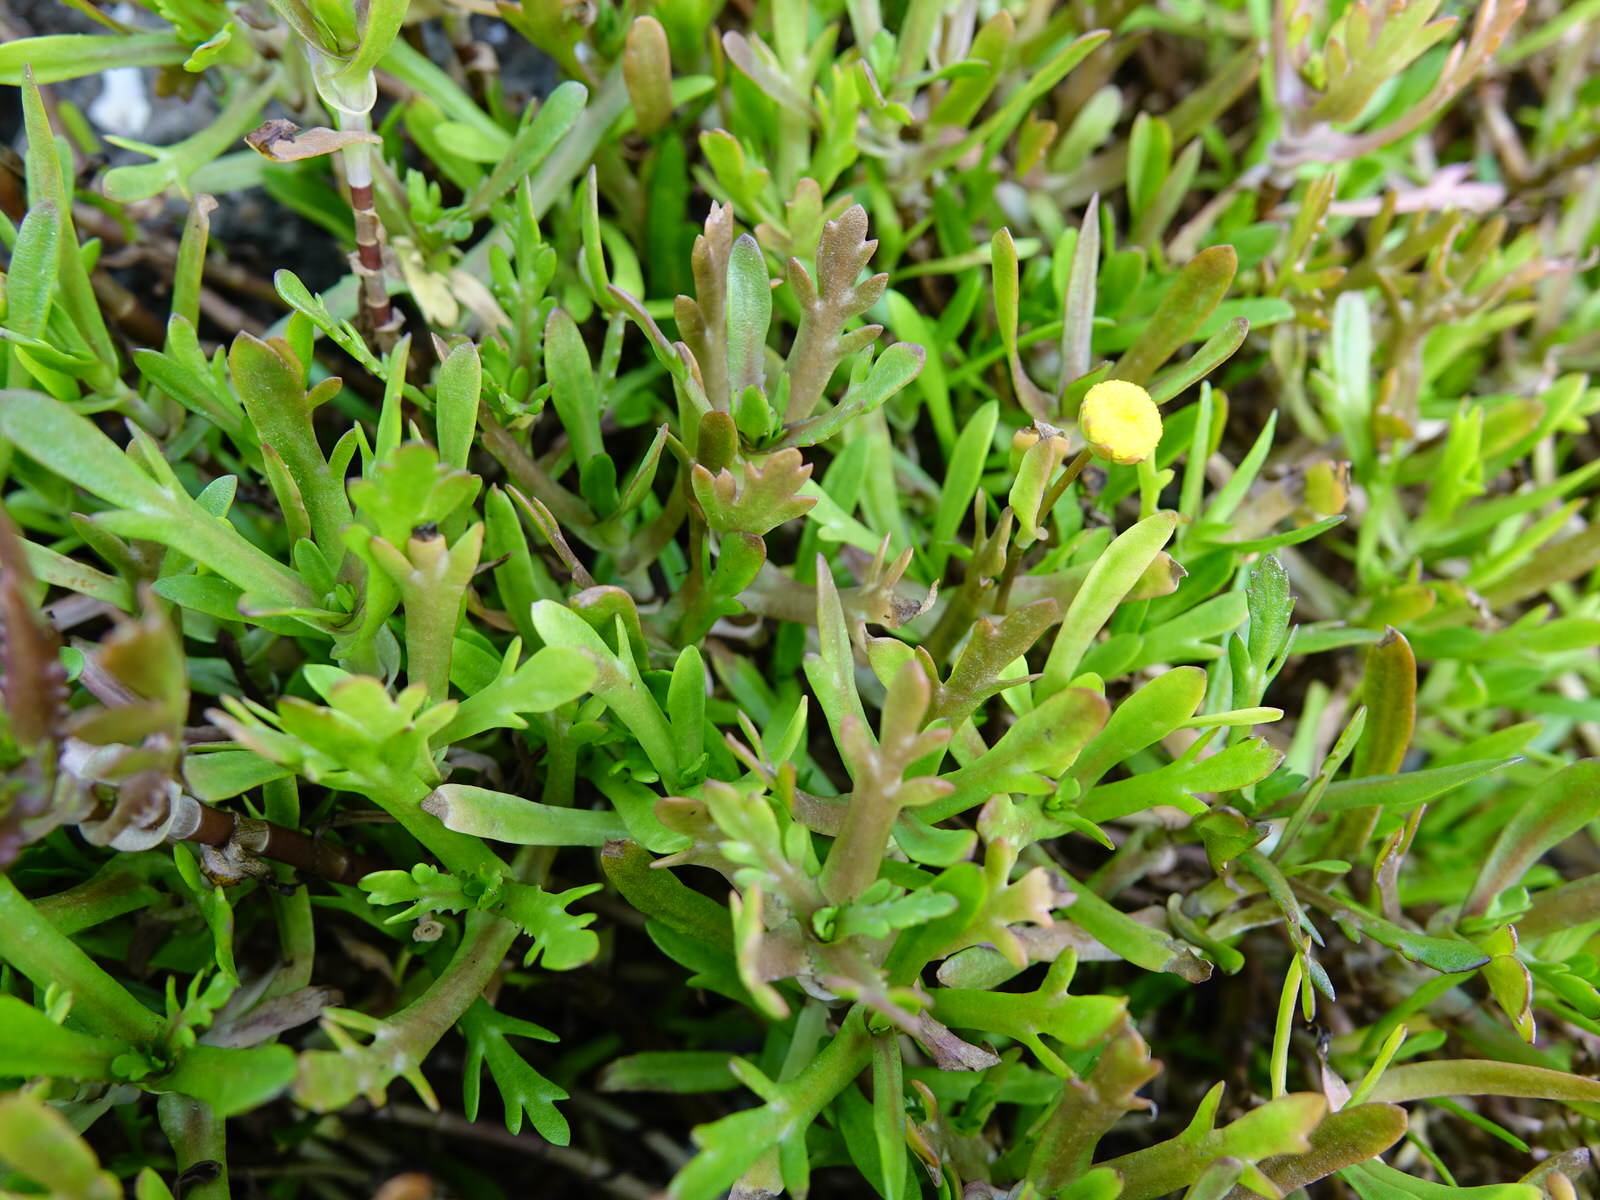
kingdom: Plantae
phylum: Tracheophyta
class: Magnoliopsida
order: Asterales
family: Asteraceae
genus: Cotula
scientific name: Cotula coronopifolia
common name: Buttonweed
